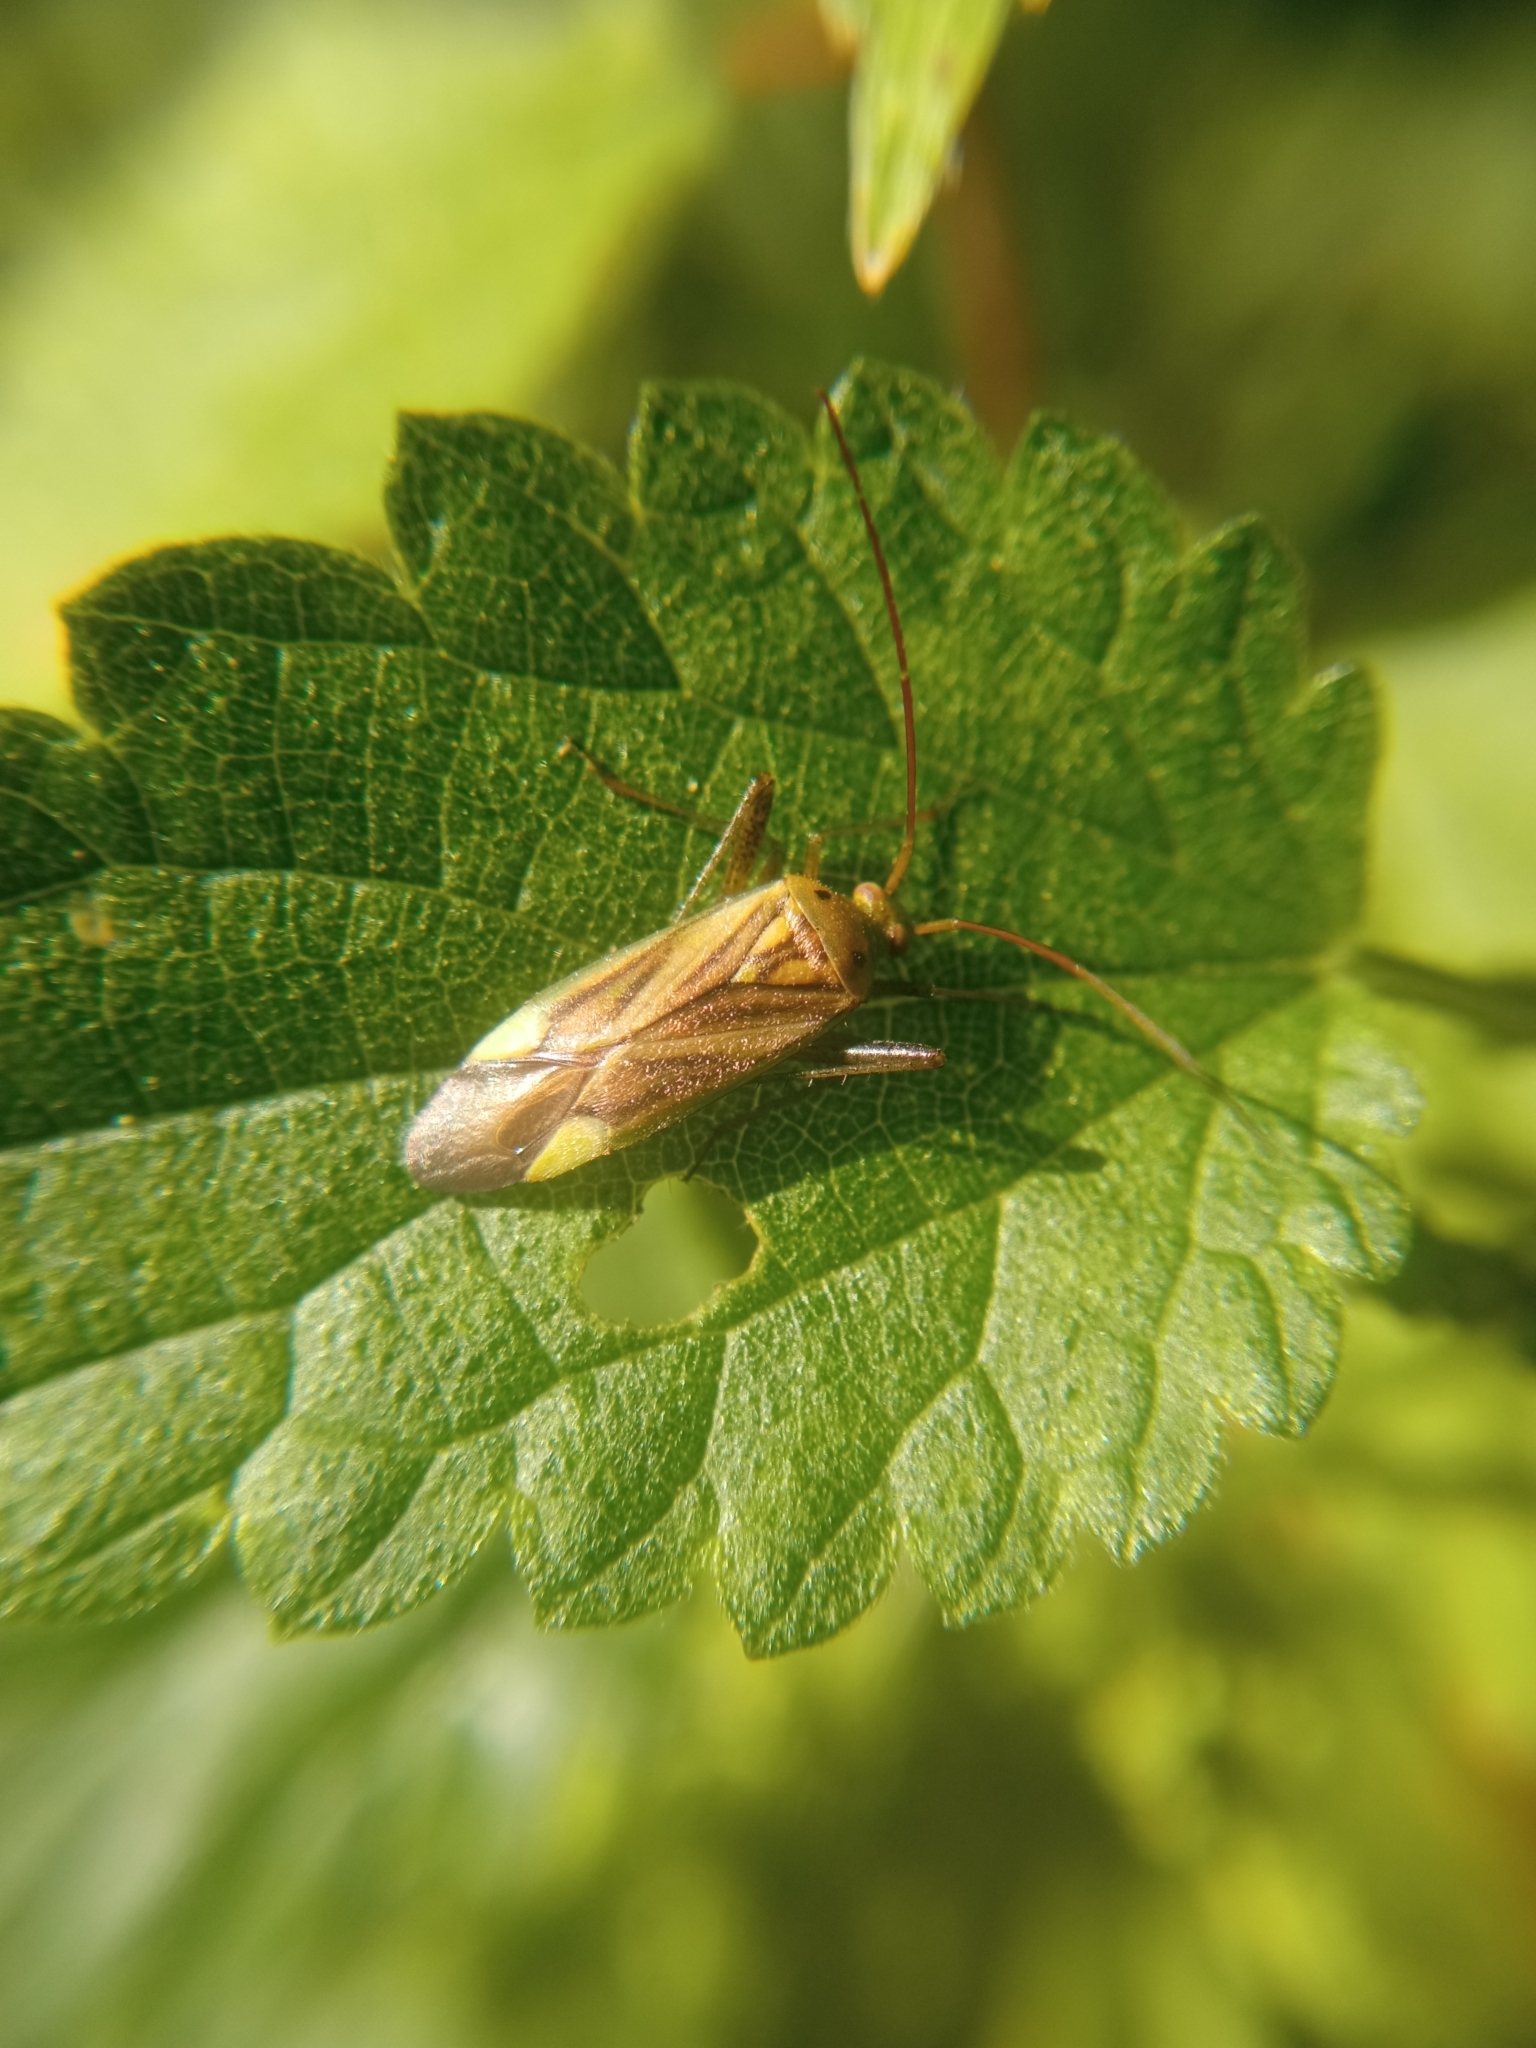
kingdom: Animalia
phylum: Arthropoda
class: Insecta
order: Hemiptera
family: Miridae
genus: Adelphocoris
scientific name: Adelphocoris lineolatus
